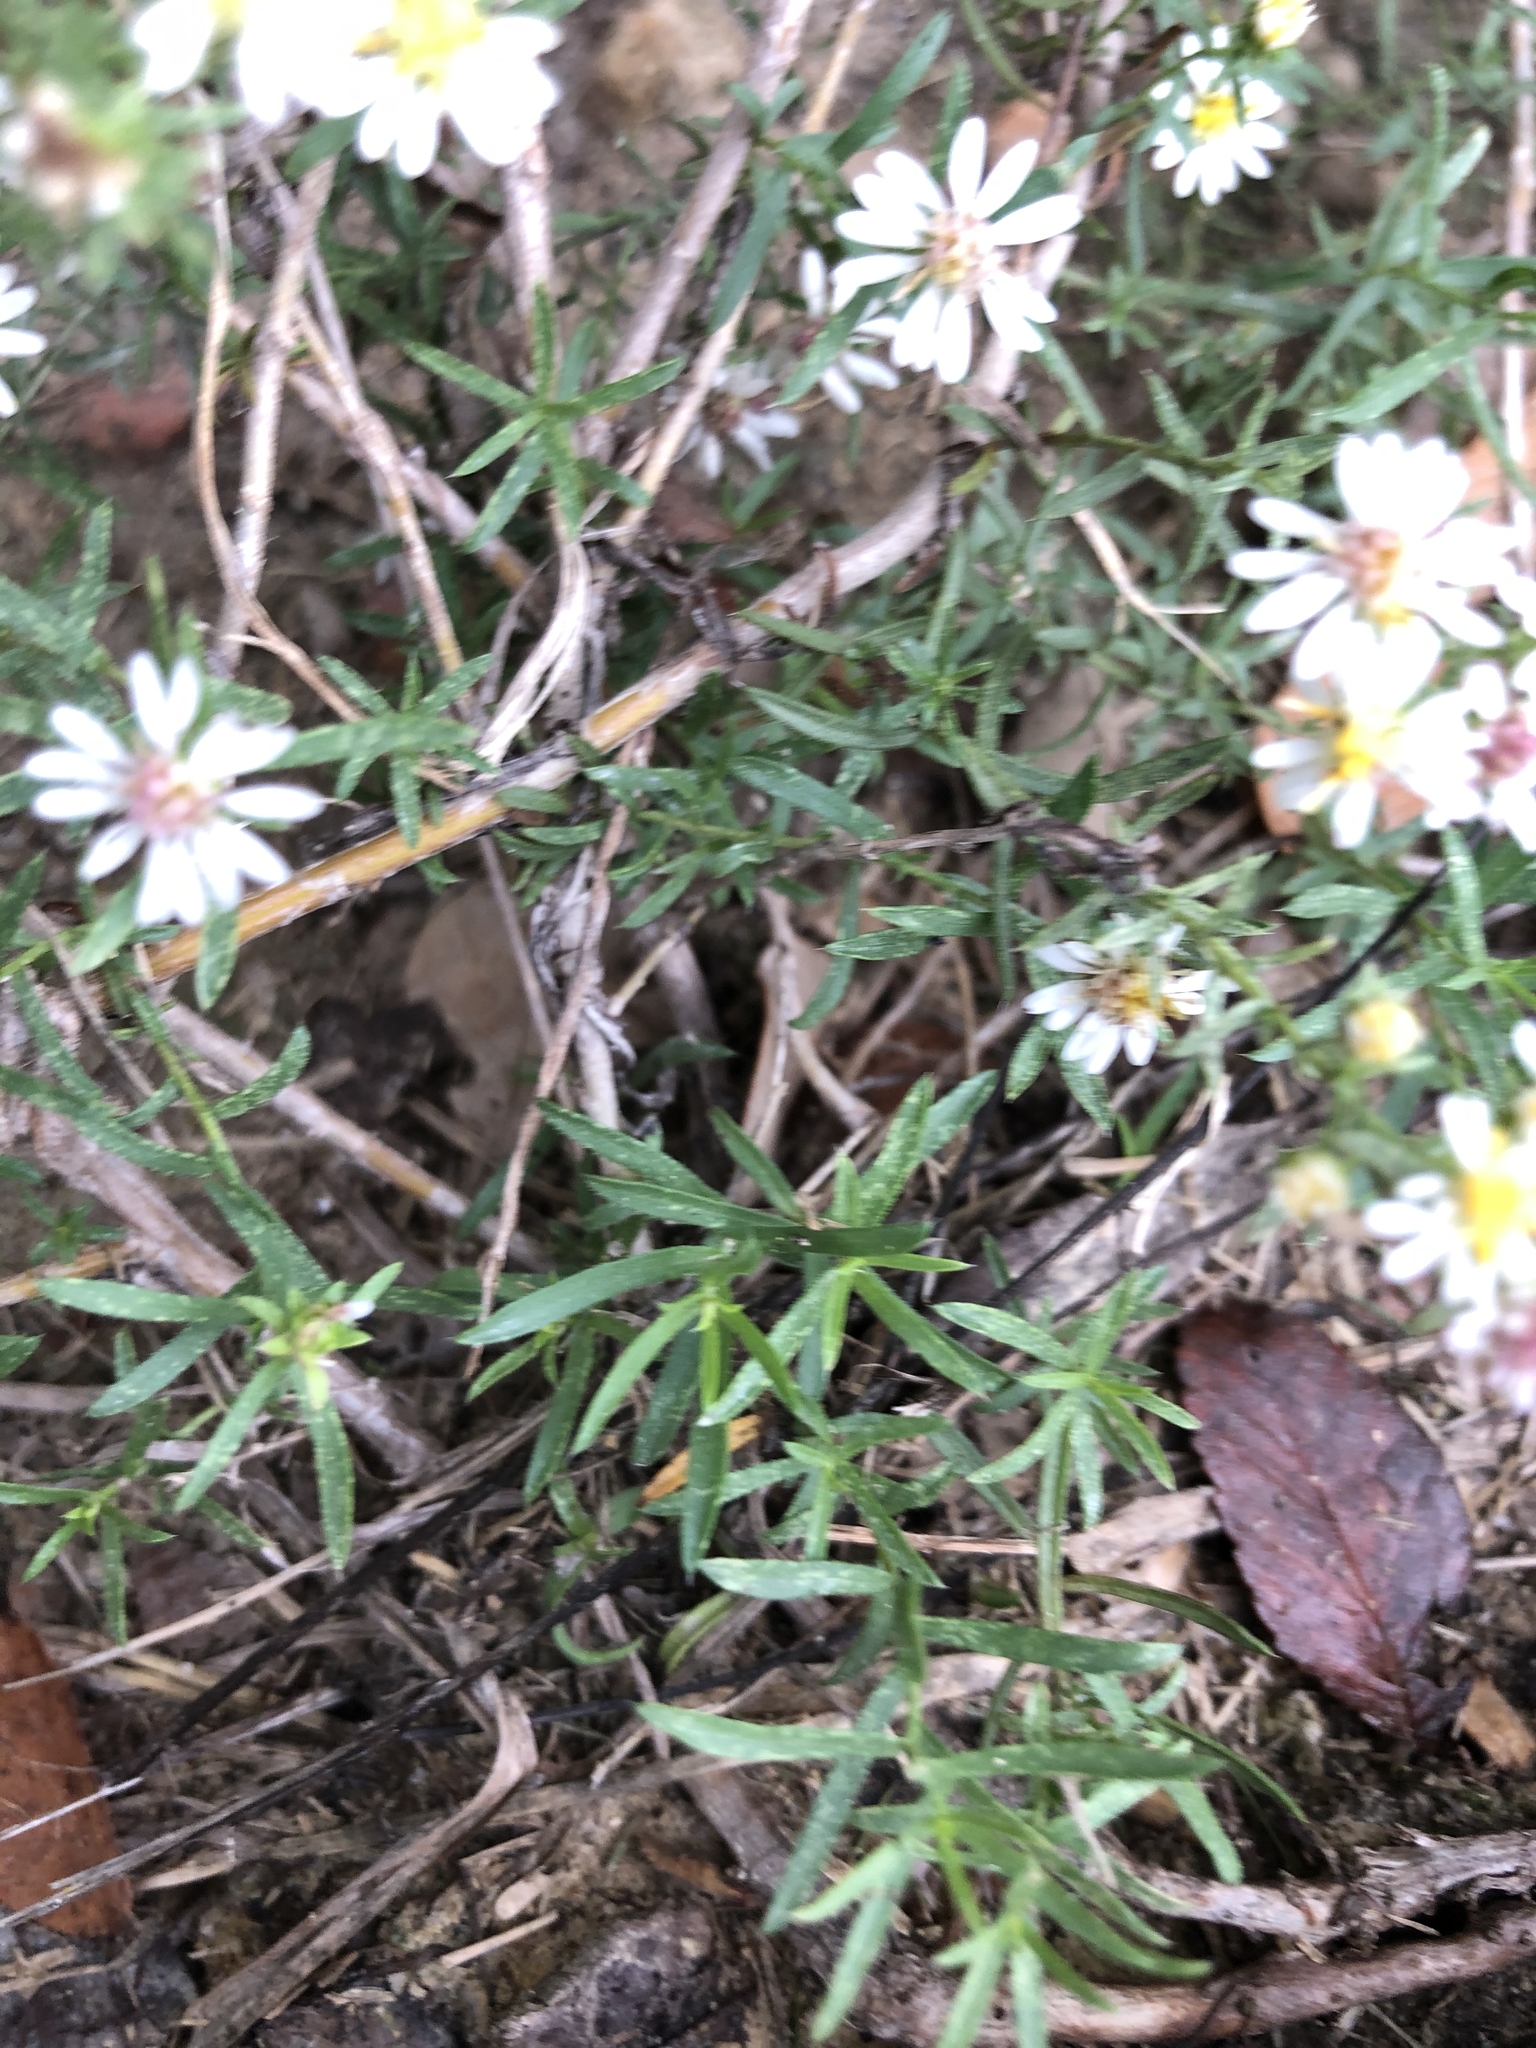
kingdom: Plantae
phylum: Tracheophyta
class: Magnoliopsida
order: Asterales
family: Asteraceae
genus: Symphyotrichum
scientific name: Symphyotrichum ericoides
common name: Heath aster
